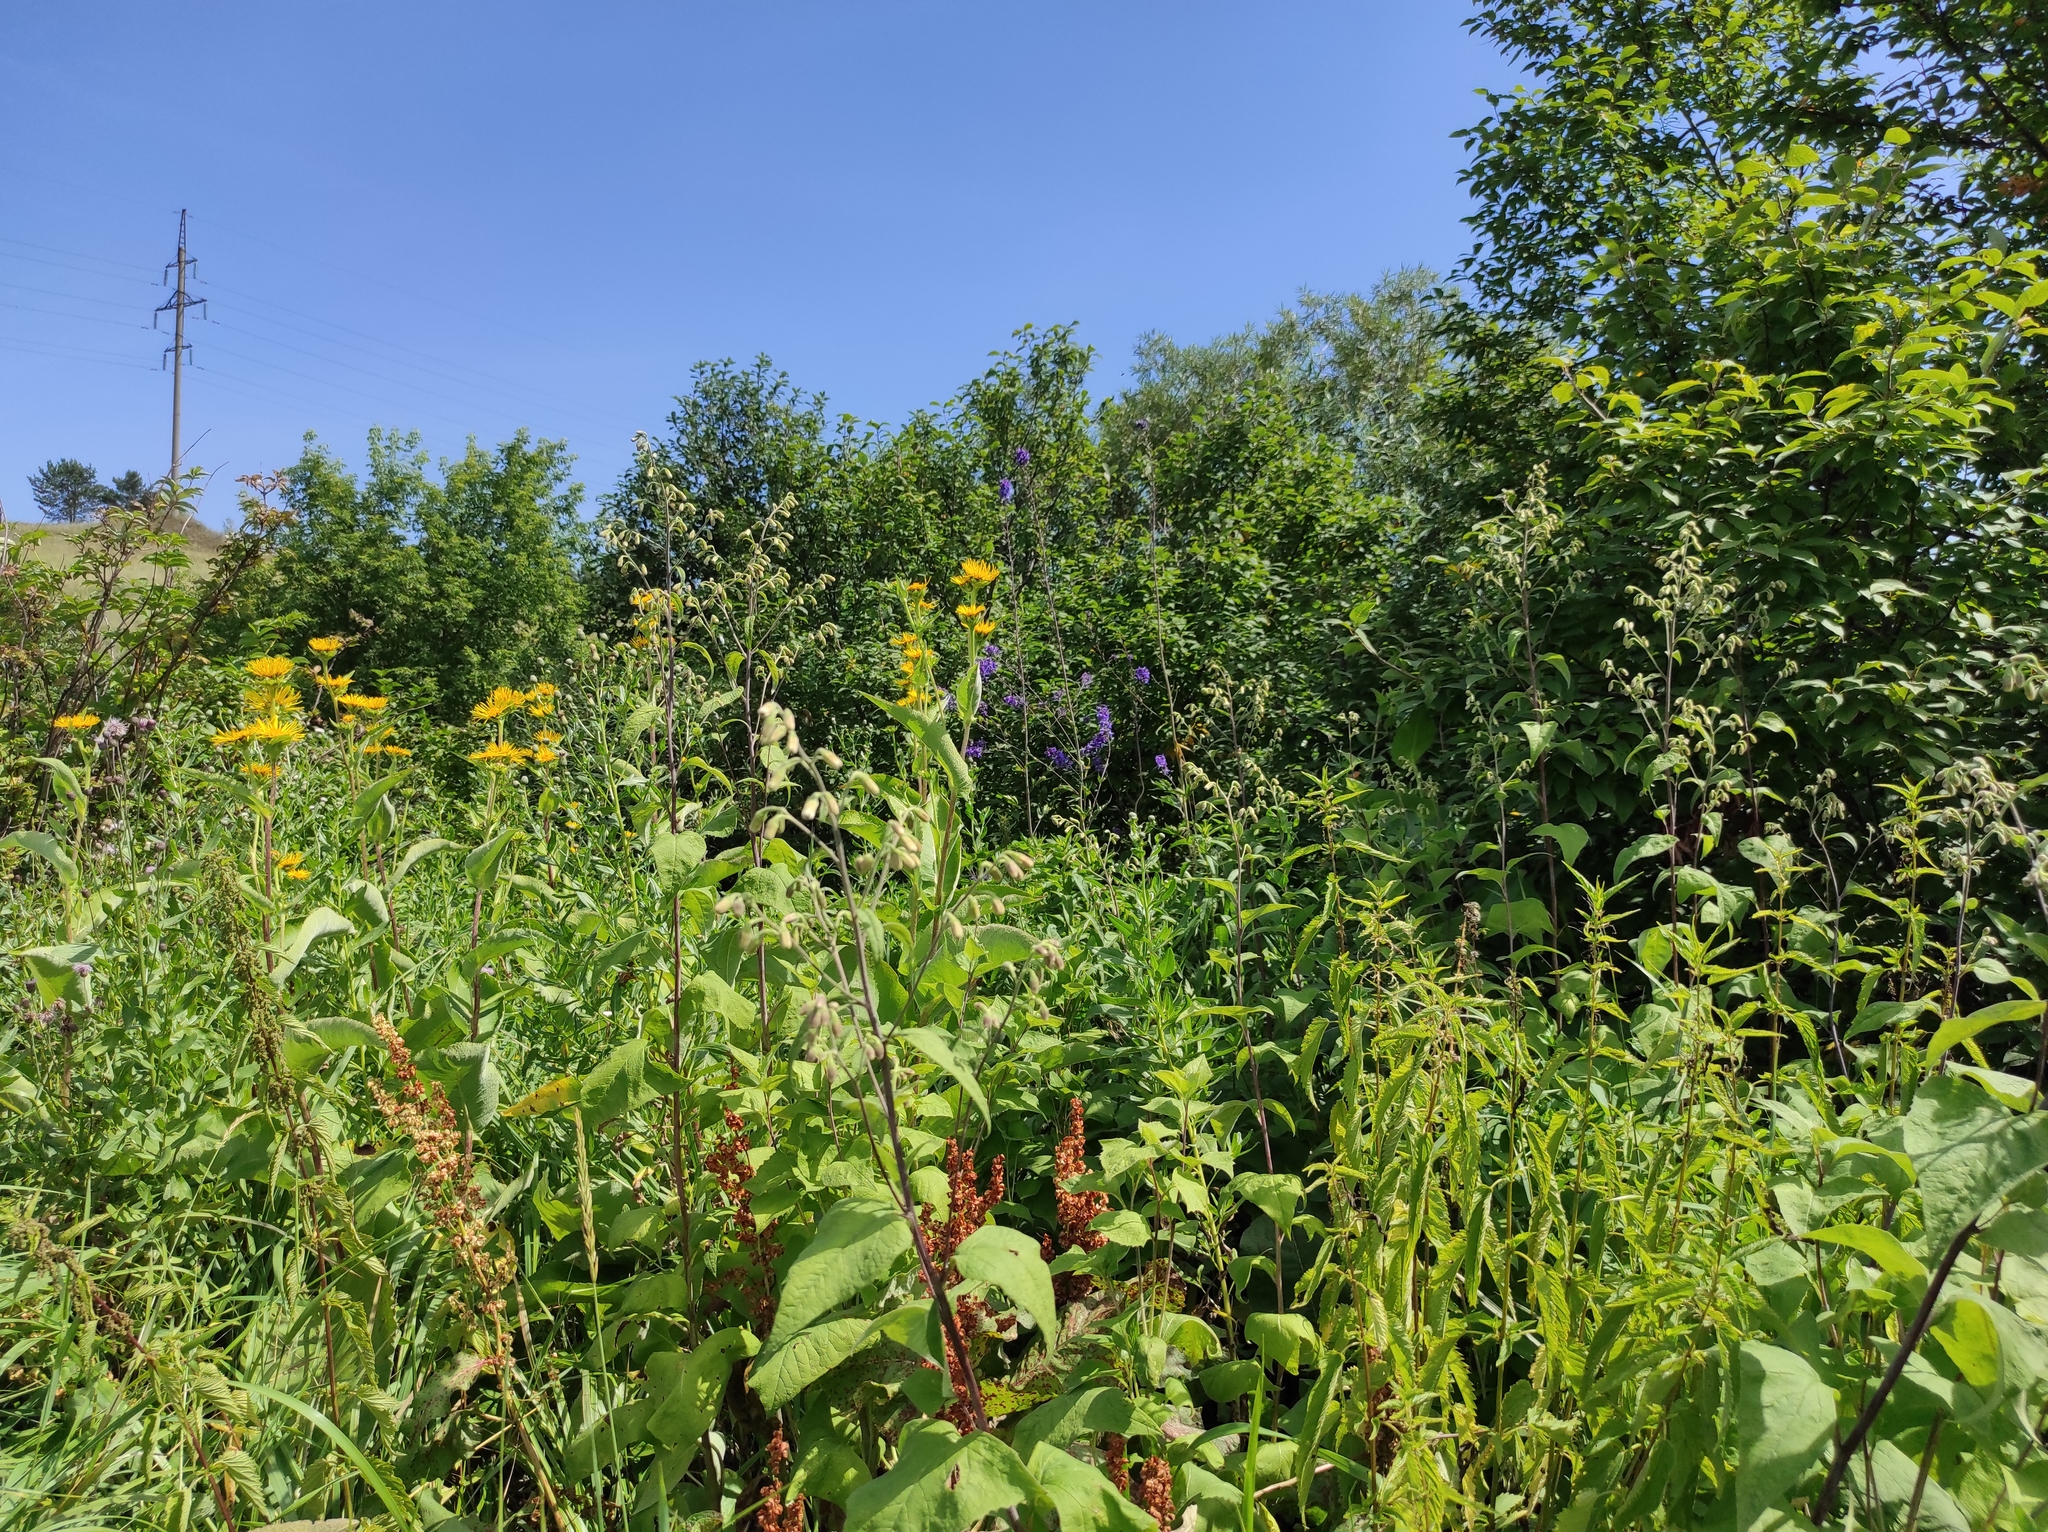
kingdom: Plantae
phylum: Tracheophyta
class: Magnoliopsida
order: Asterales
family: Asteraceae
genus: Inula
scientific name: Inula helenium
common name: Elecampane
